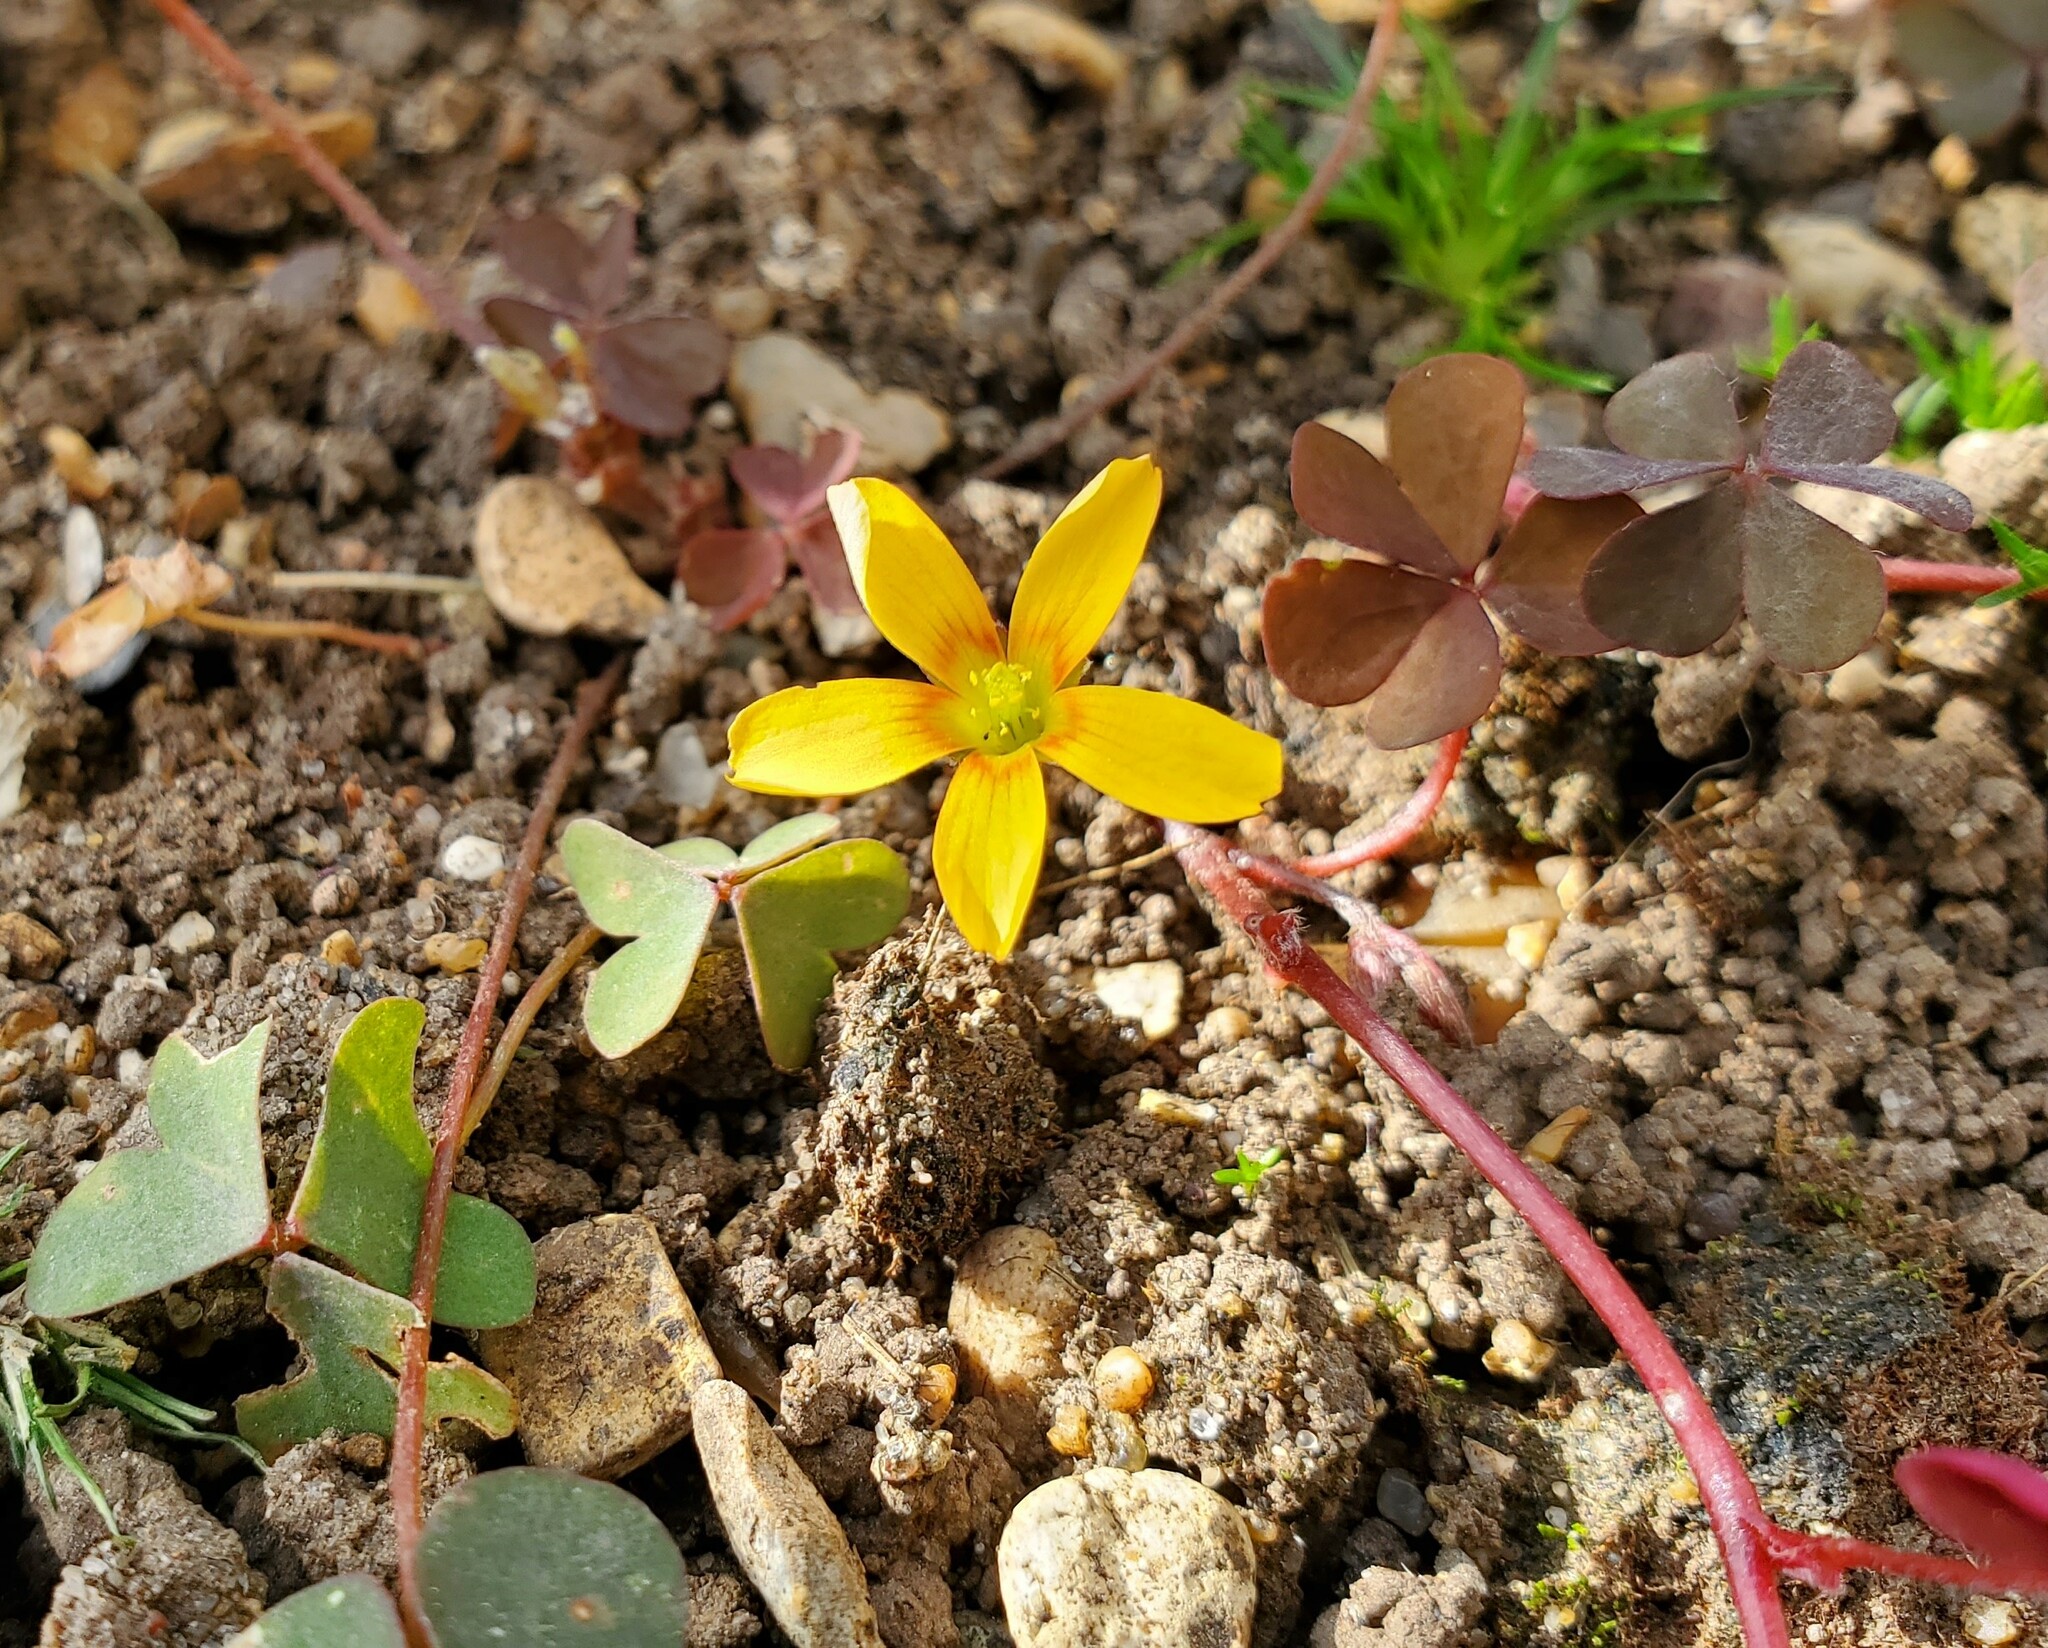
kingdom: Plantae
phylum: Tracheophyta
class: Magnoliopsida
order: Oxalidales
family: Oxalidaceae
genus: Oxalis
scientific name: Oxalis corniculata
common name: Procumbent yellow-sorrel
